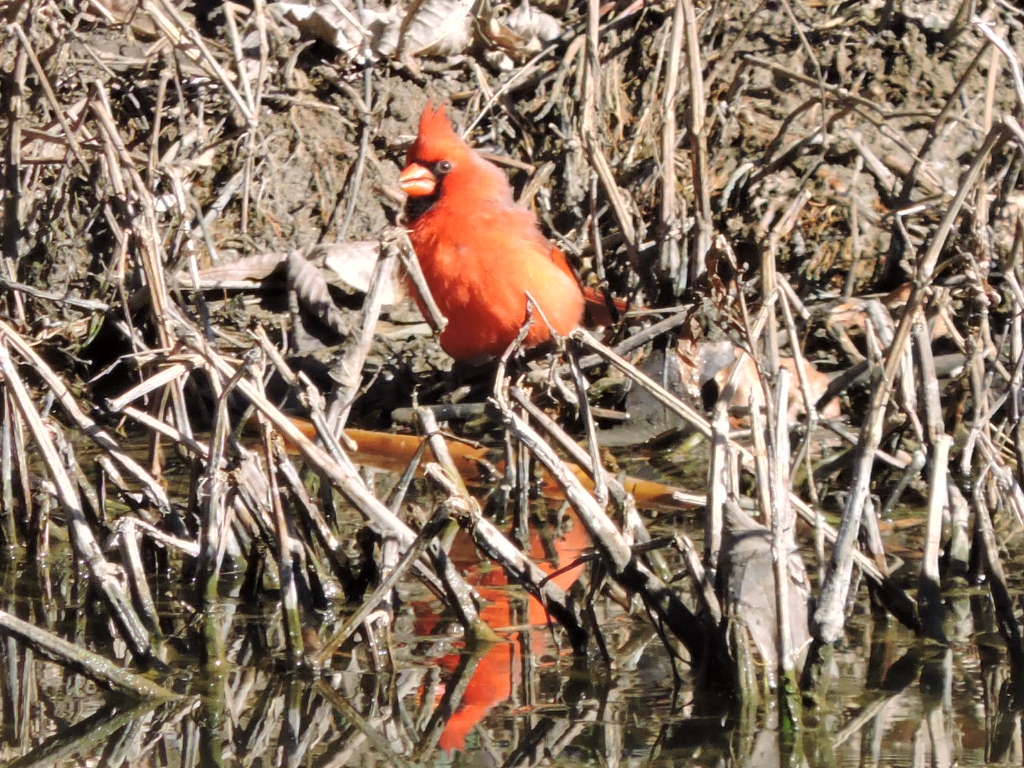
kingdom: Animalia
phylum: Chordata
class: Aves
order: Passeriformes
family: Cardinalidae
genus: Cardinalis
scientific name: Cardinalis cardinalis
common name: Northern cardinal
